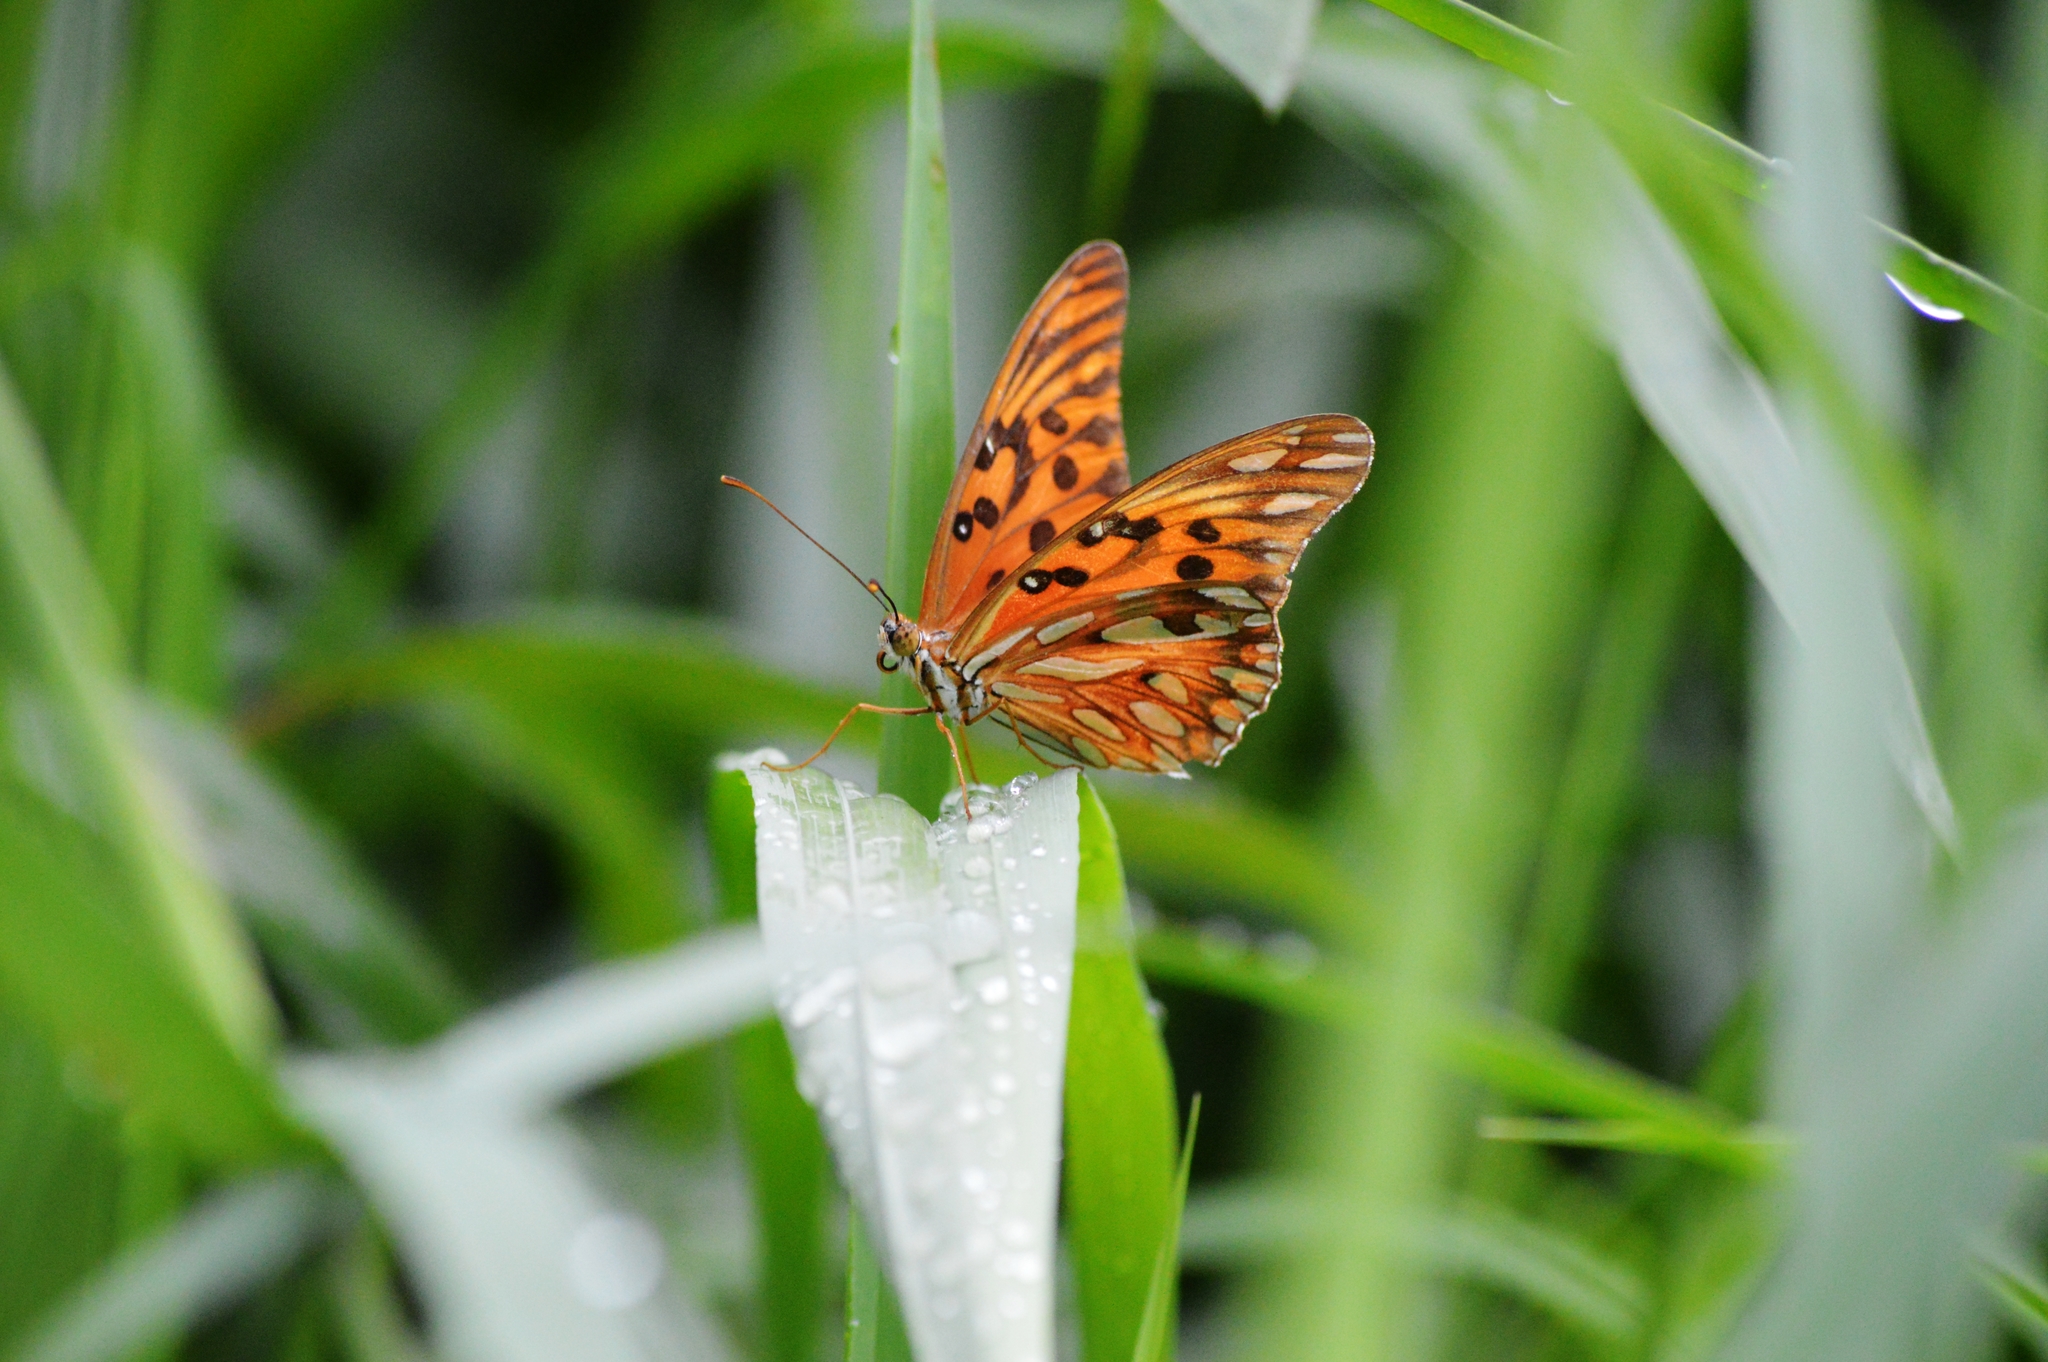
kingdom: Animalia
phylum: Arthropoda
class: Insecta
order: Lepidoptera
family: Nymphalidae
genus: Dione
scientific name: Dione vanillae
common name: Gulf fritillary
